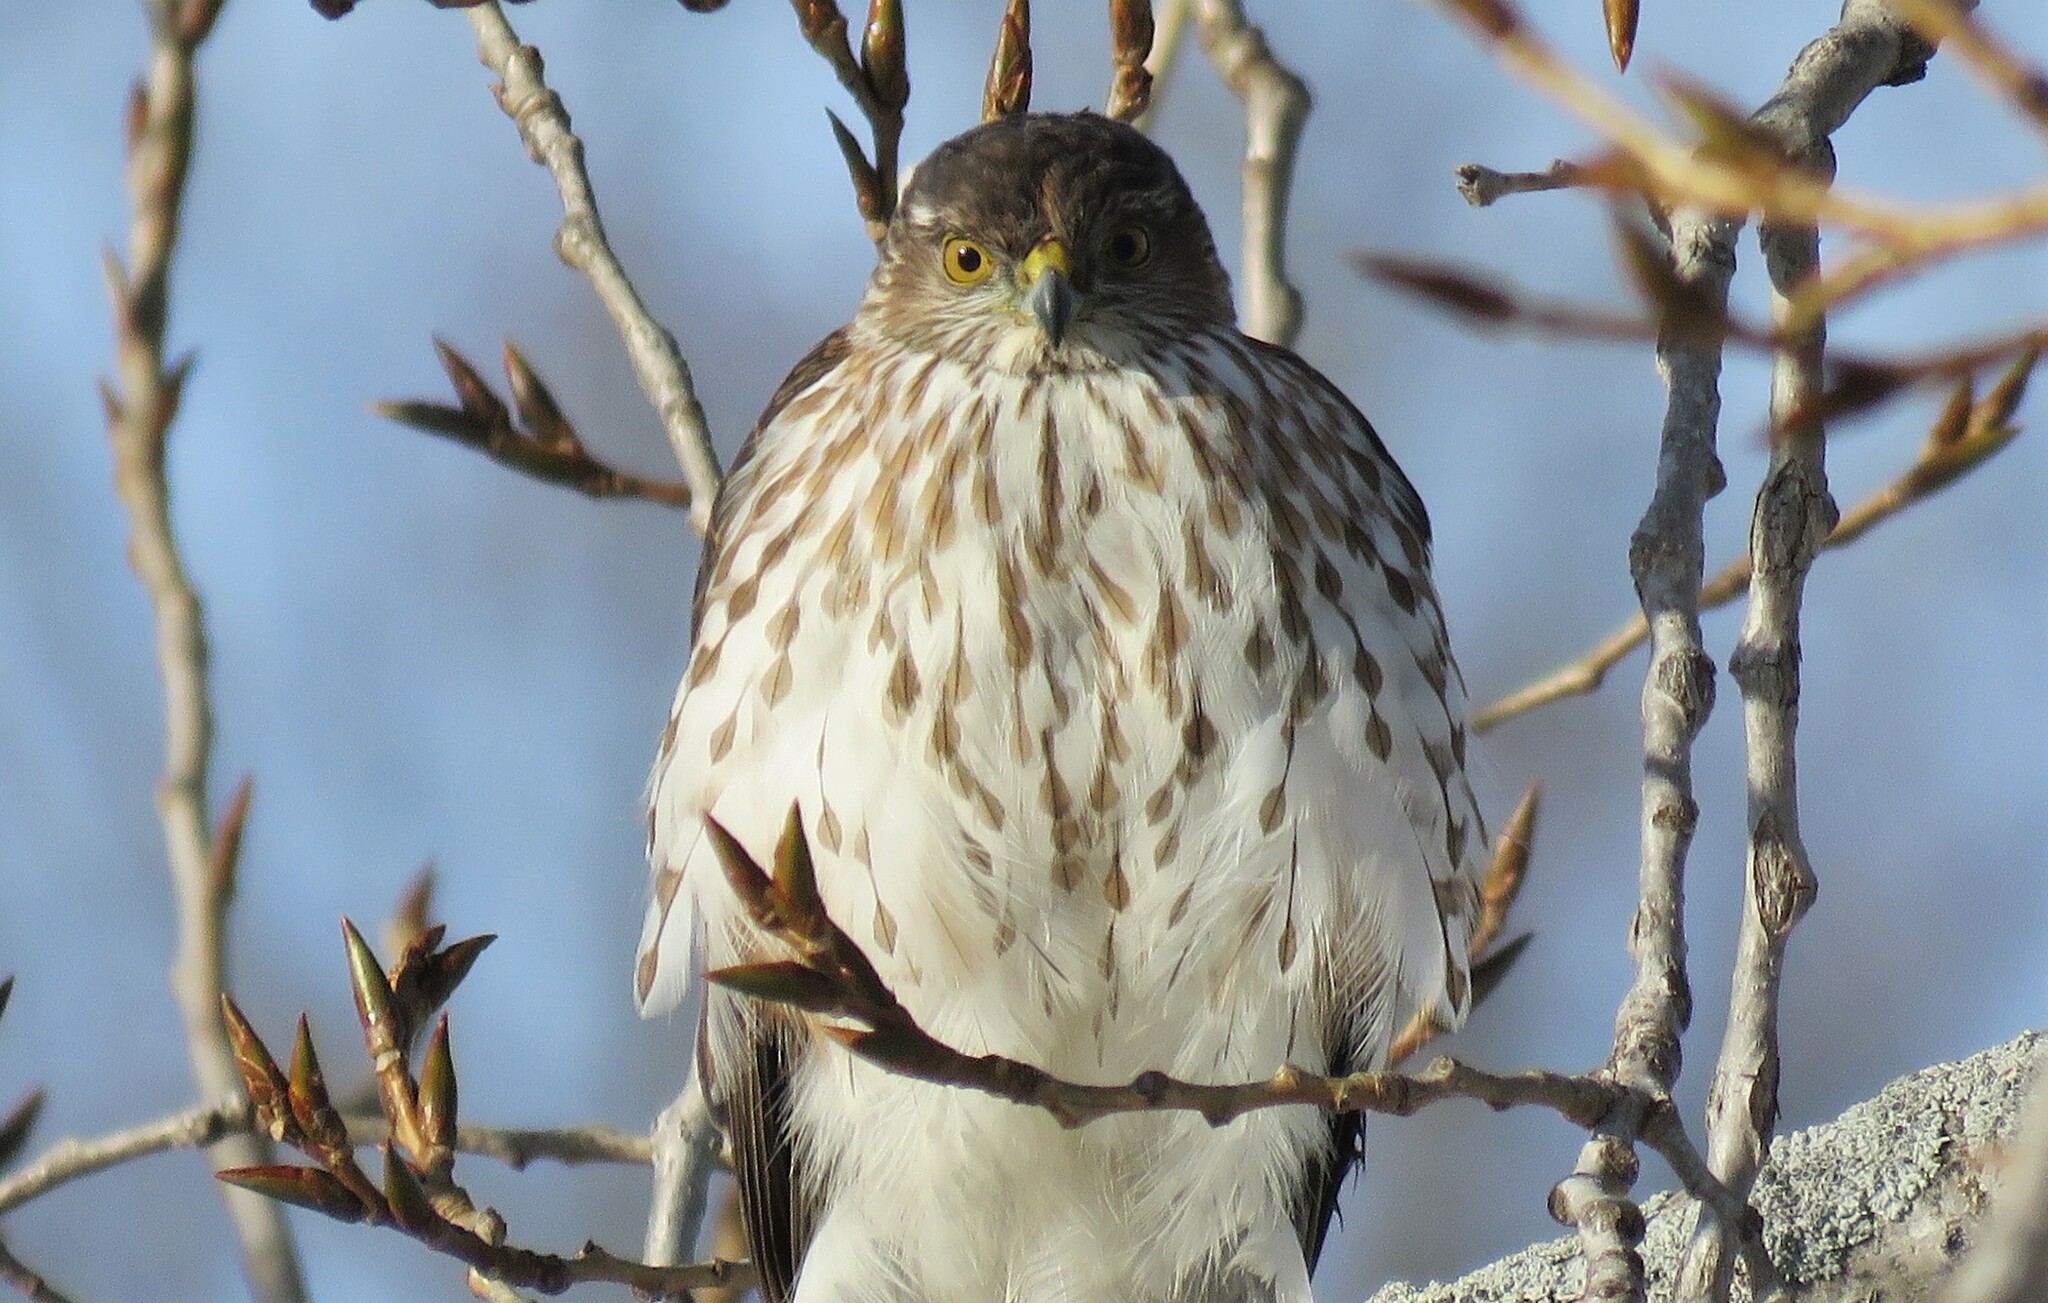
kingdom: Animalia
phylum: Chordata
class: Aves
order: Accipitriformes
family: Accipitridae
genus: Accipiter
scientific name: Accipiter striatus
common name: Sharp-shinned hawk
